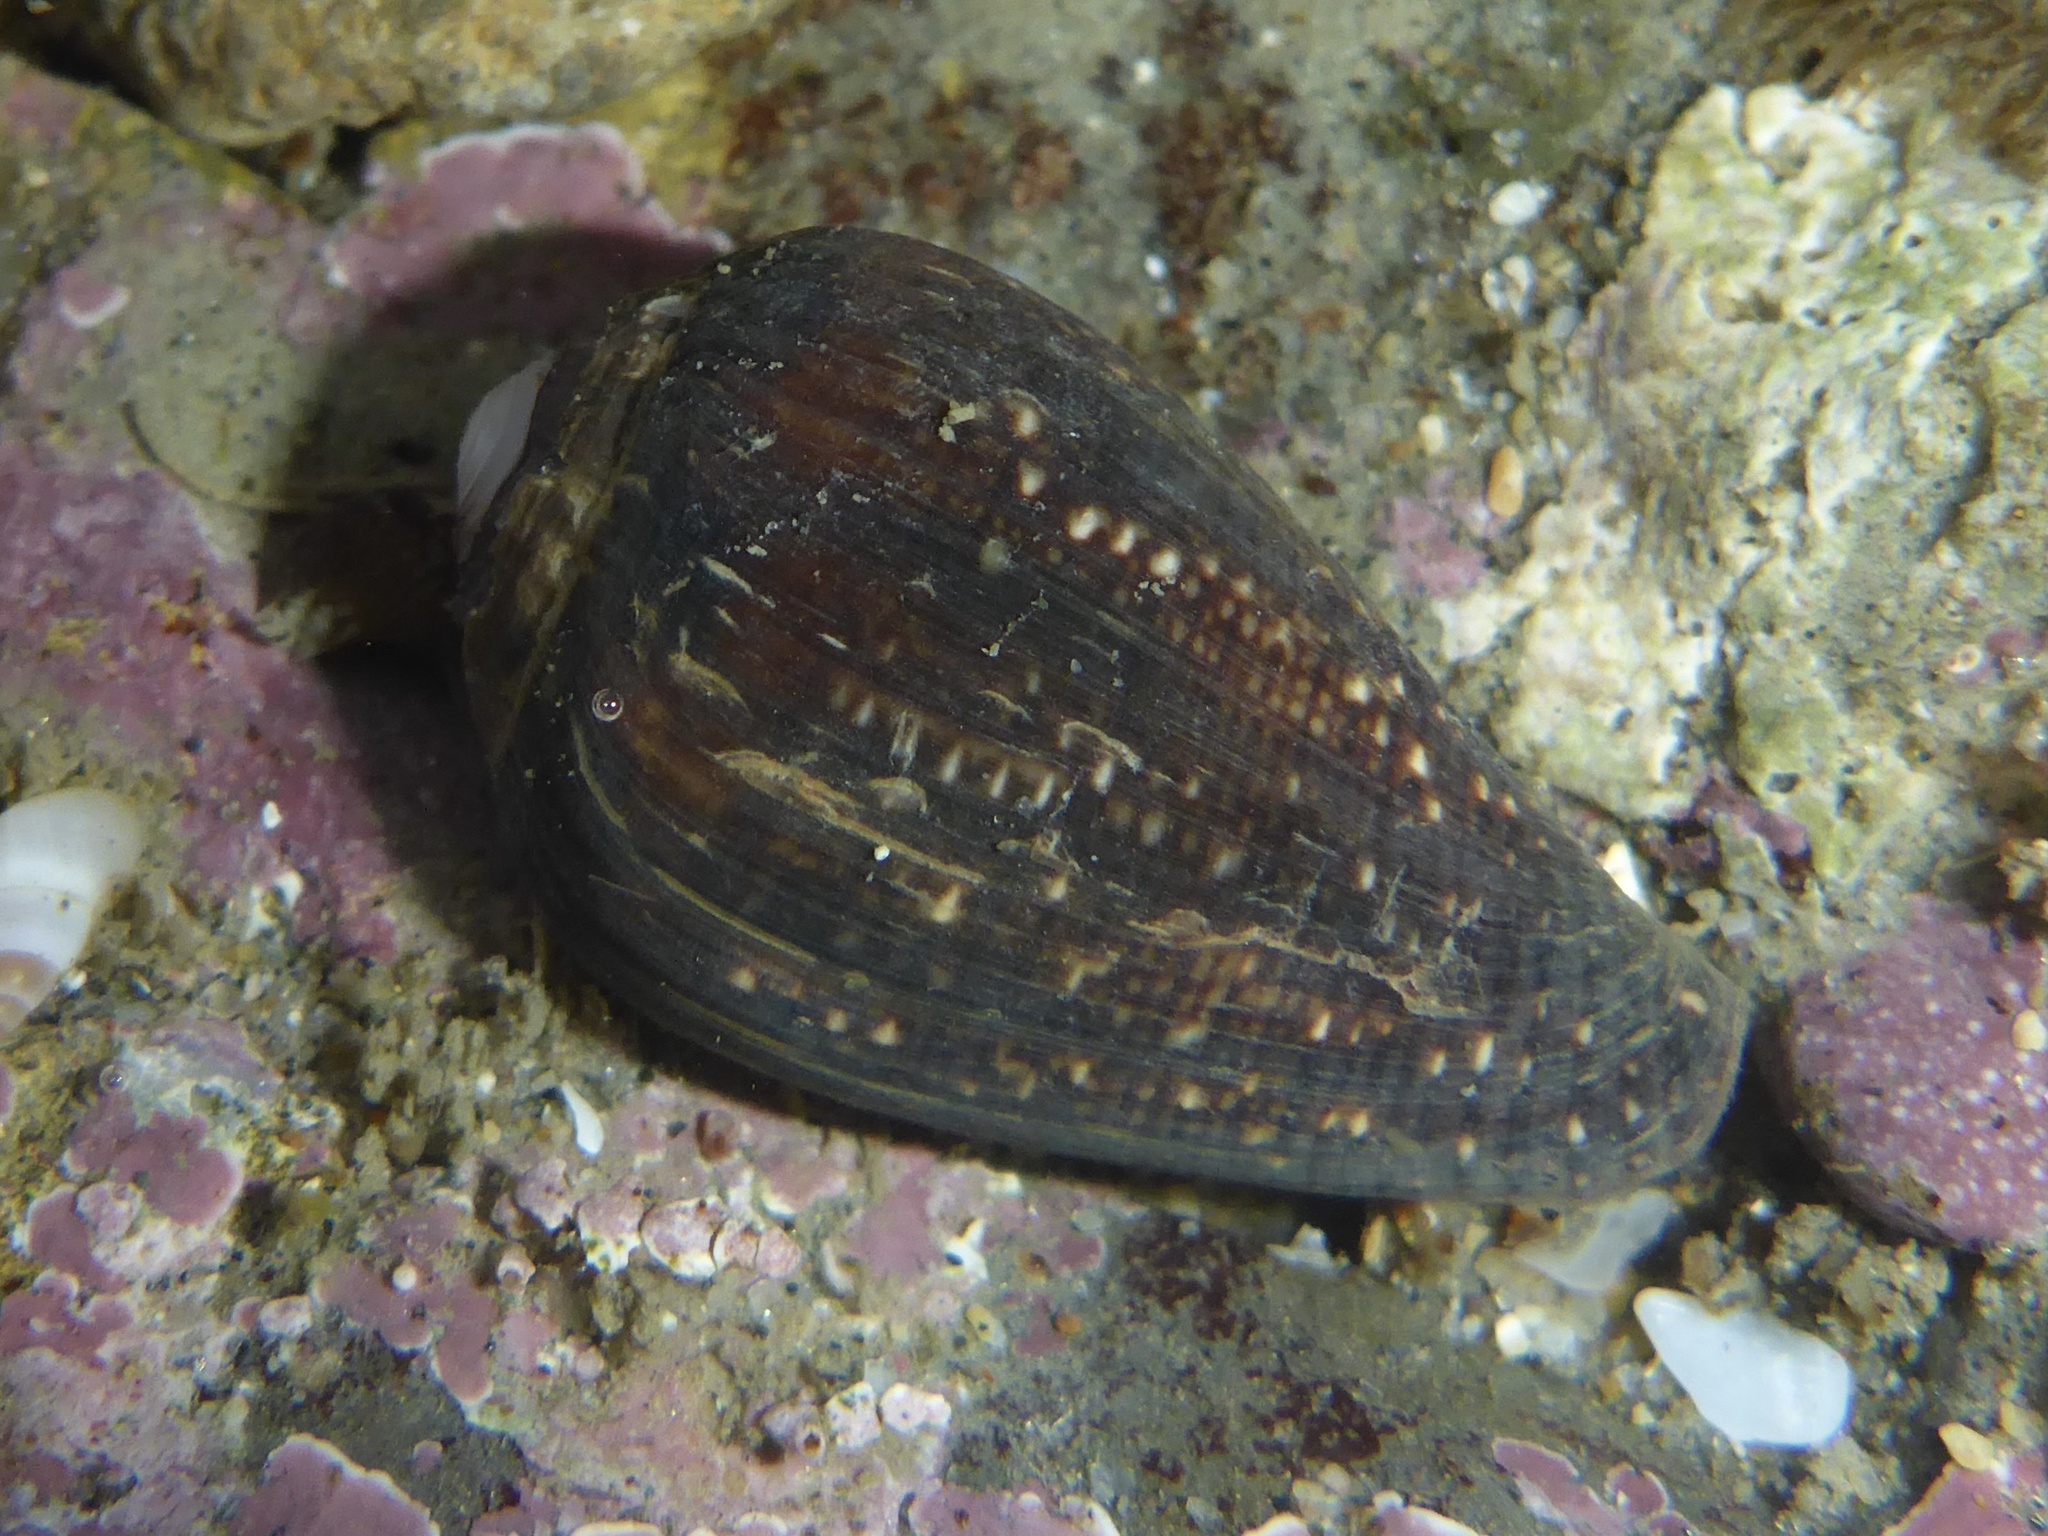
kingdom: Animalia
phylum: Mollusca
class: Gastropoda
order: Neogastropoda
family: Conidae
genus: Californiconus
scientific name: Californiconus californicus
